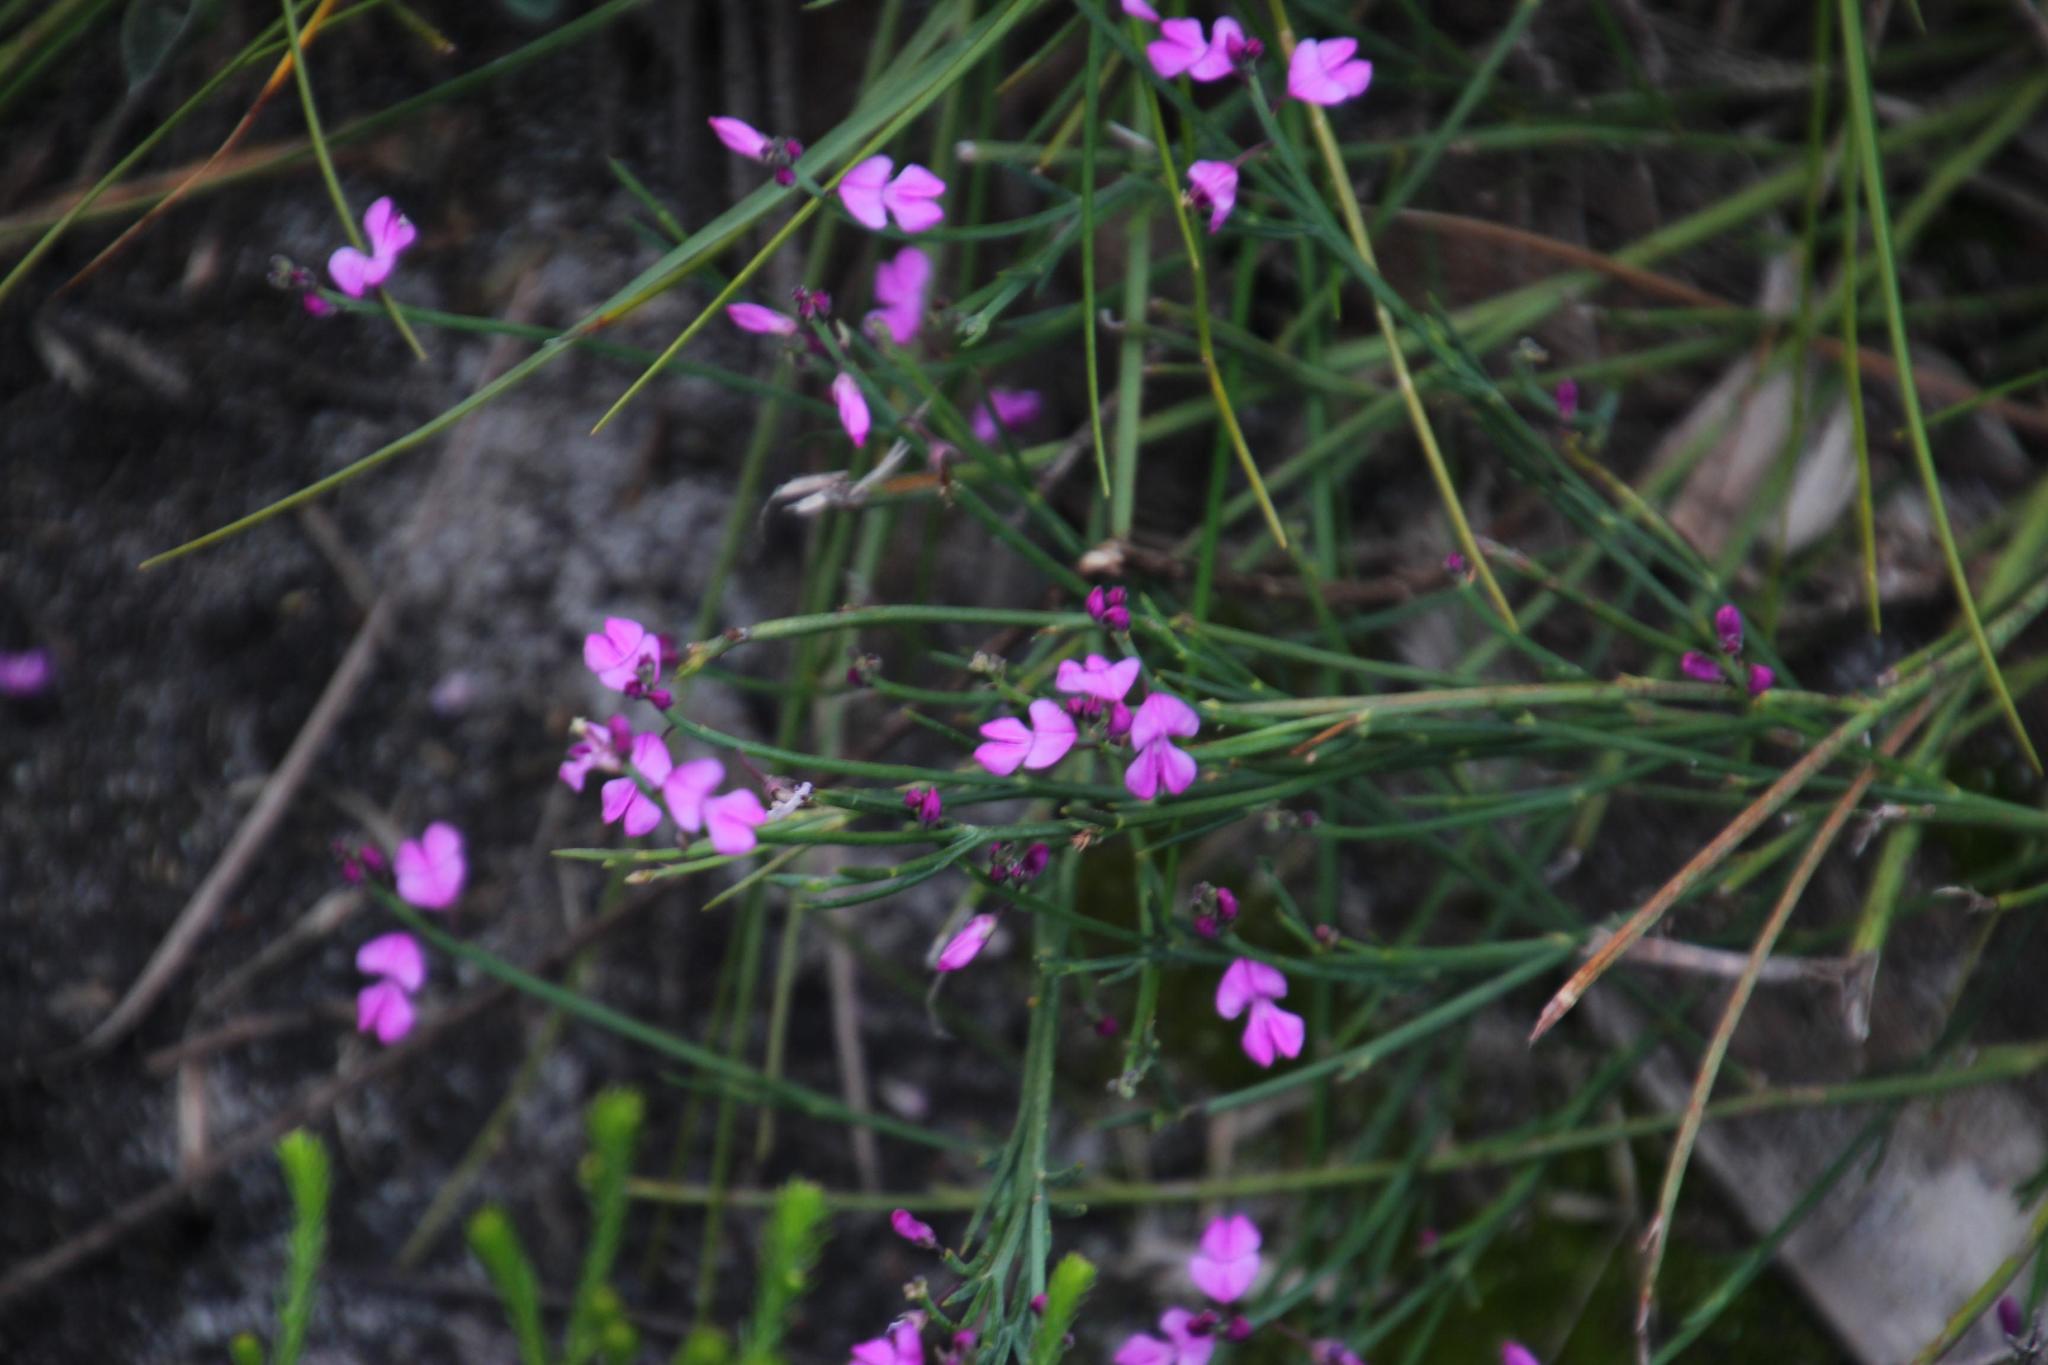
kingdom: Plantae
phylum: Tracheophyta
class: Magnoliopsida
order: Fabales
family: Fabaceae
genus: Indigofera
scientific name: Indigofera ionii
